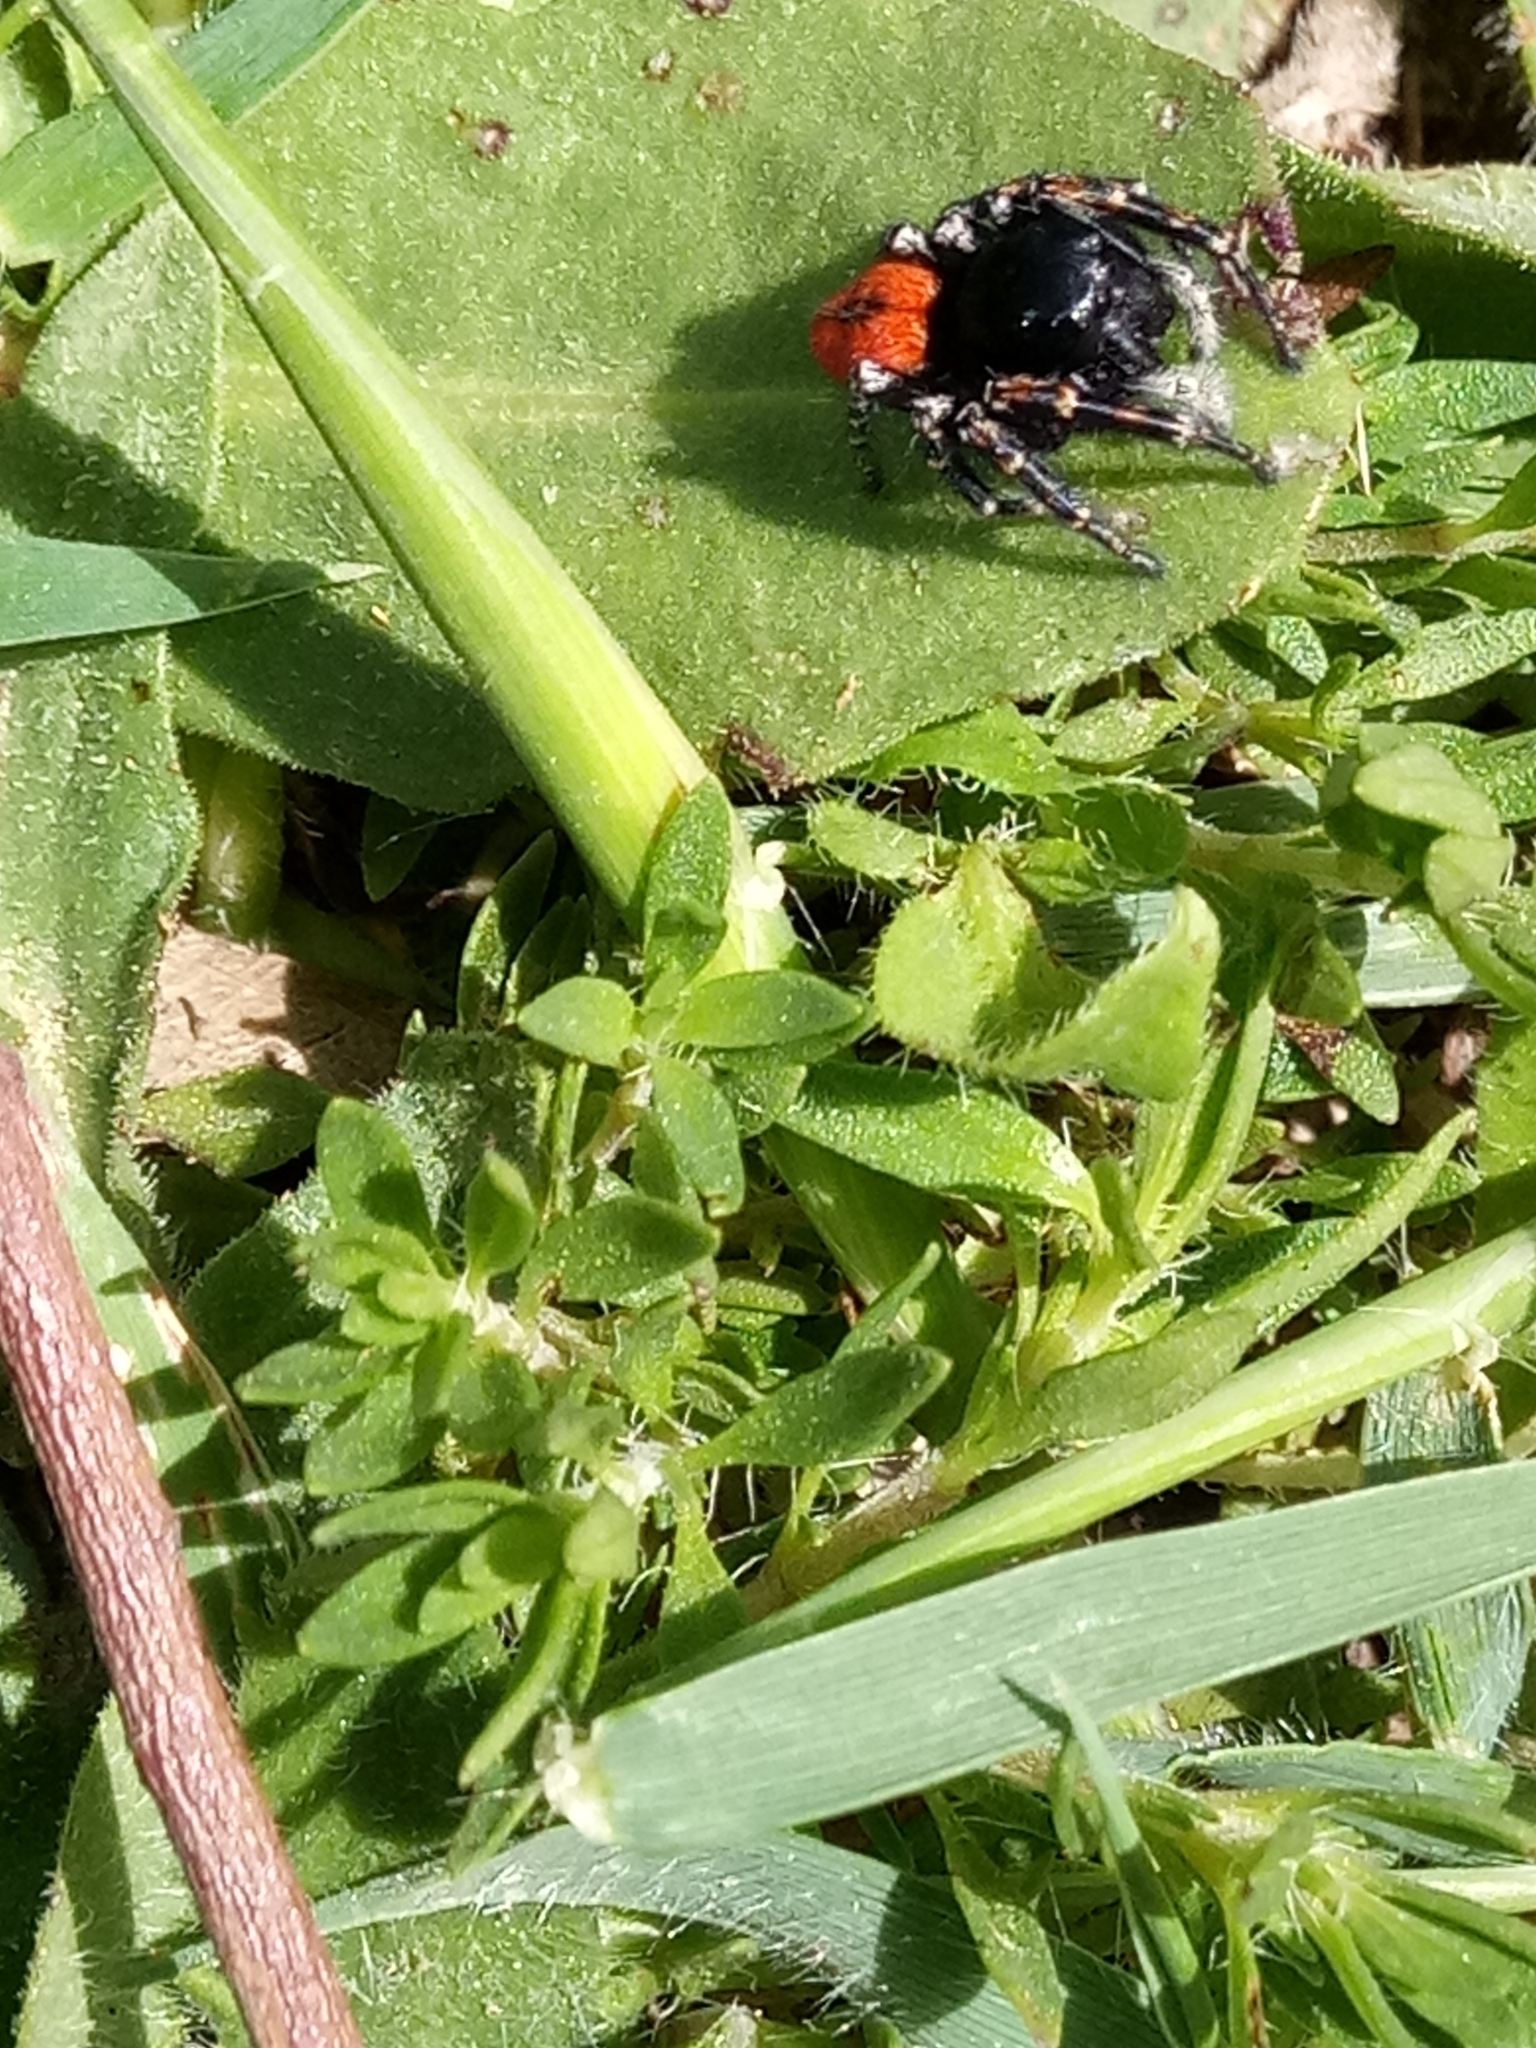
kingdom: Animalia
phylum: Arthropoda
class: Arachnida
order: Araneae
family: Salticidae
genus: Philaeus
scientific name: Philaeus chrysops
